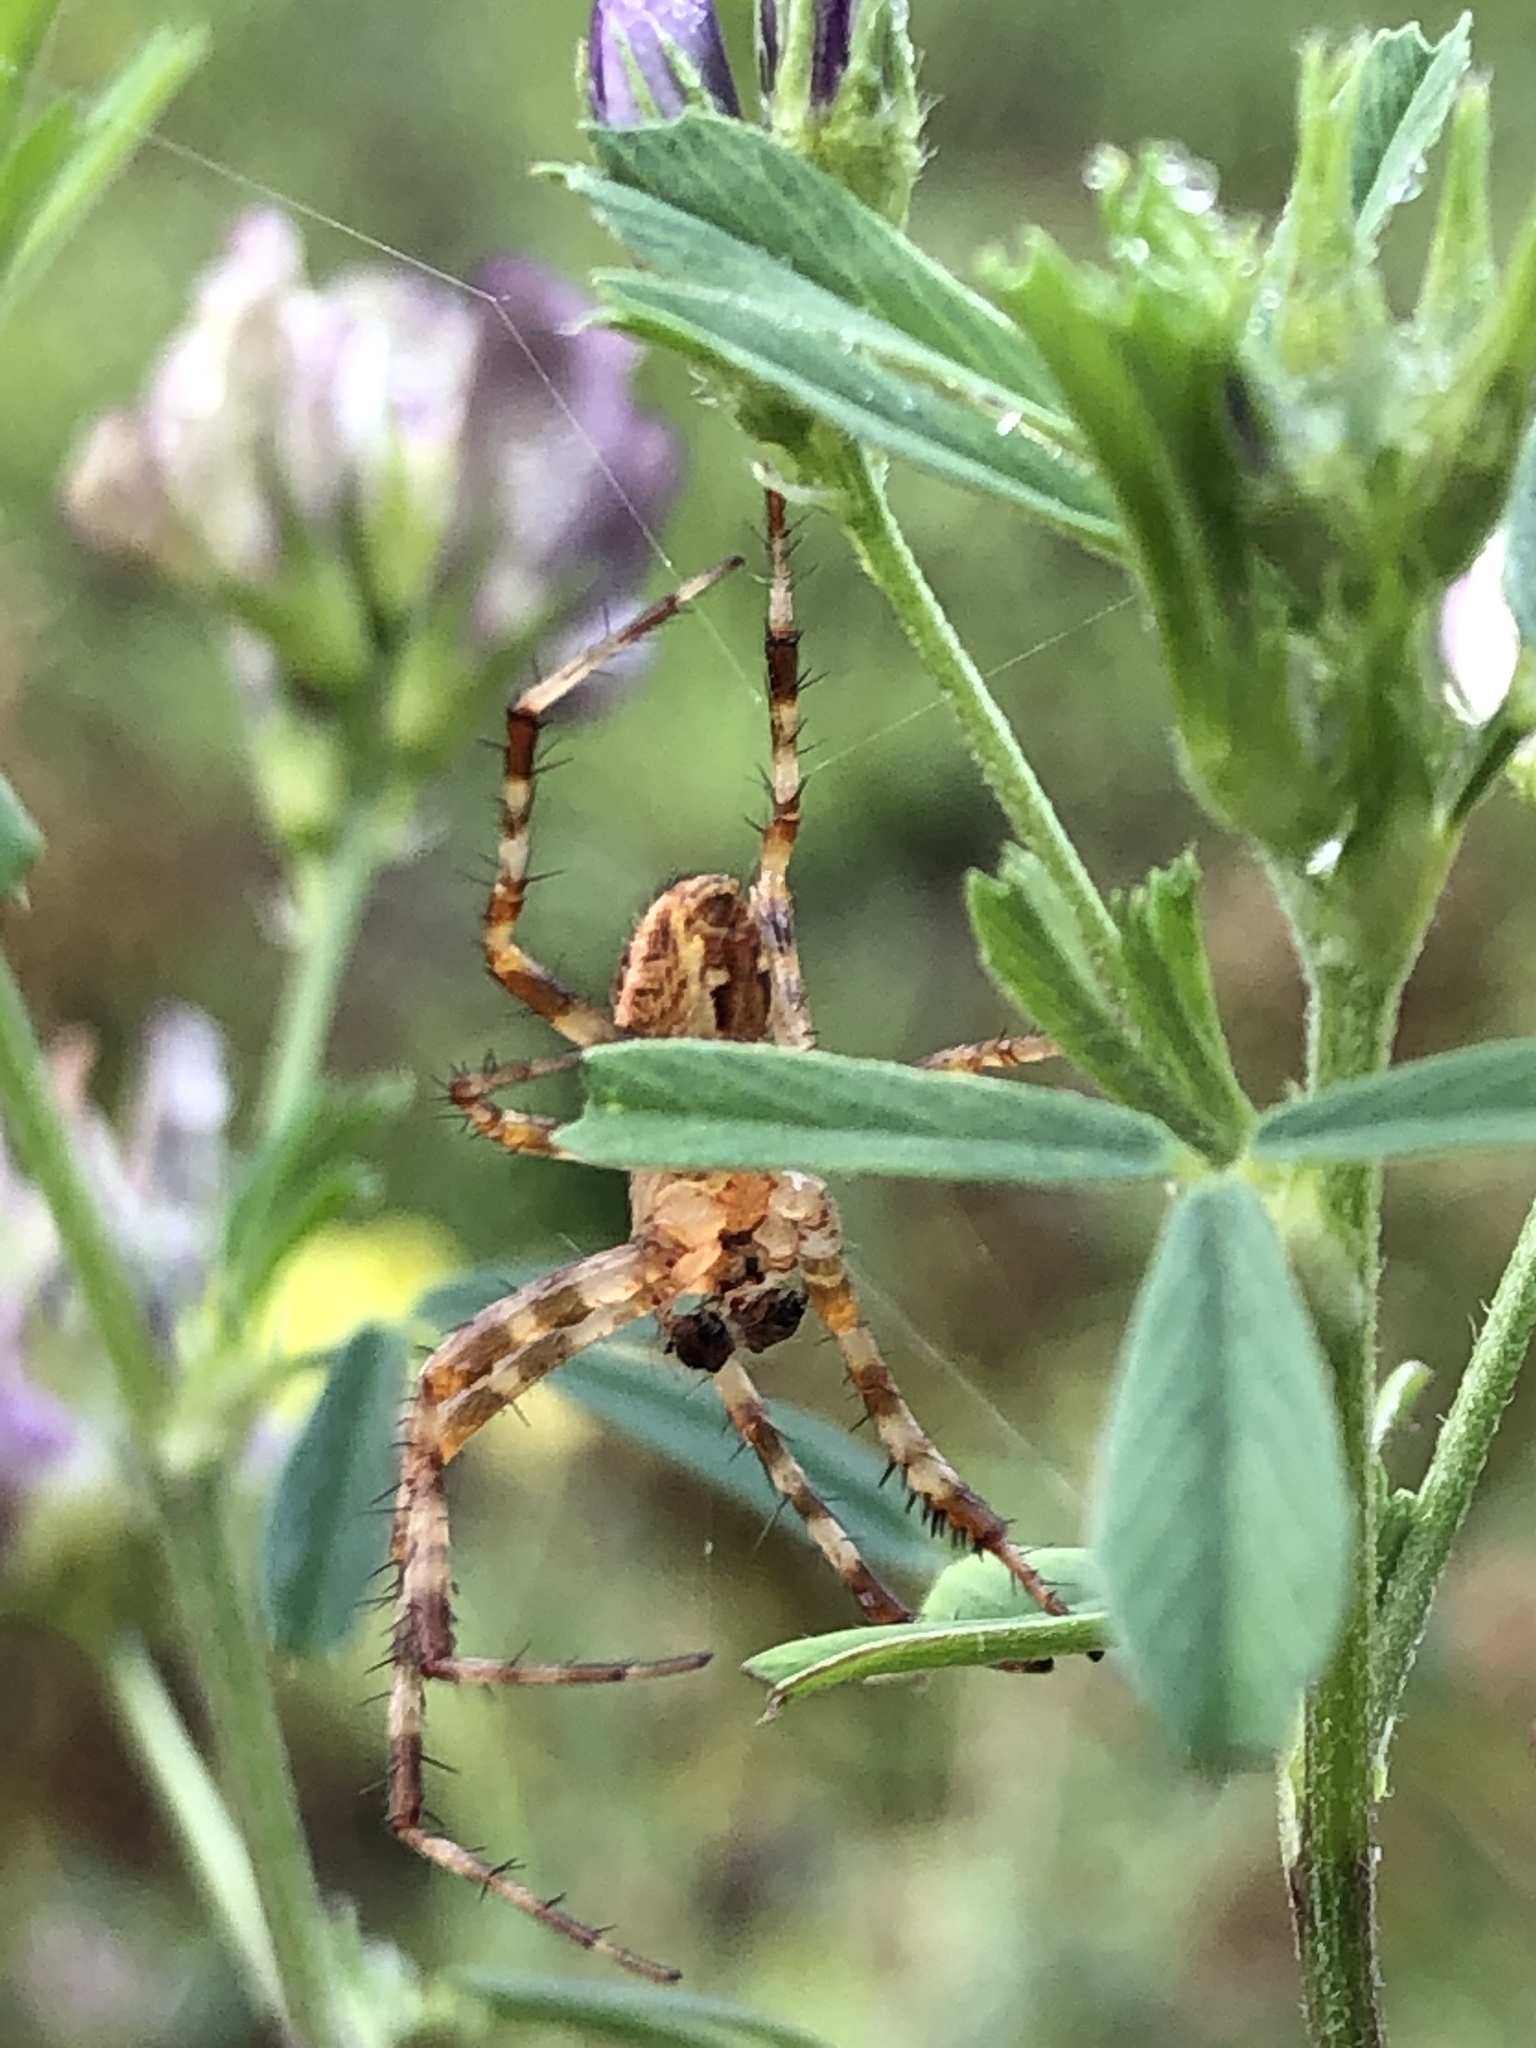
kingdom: Animalia
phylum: Arthropoda
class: Arachnida
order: Araneae
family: Araneidae
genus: Araneus
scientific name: Araneus diadematus
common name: Cross orbweaver
